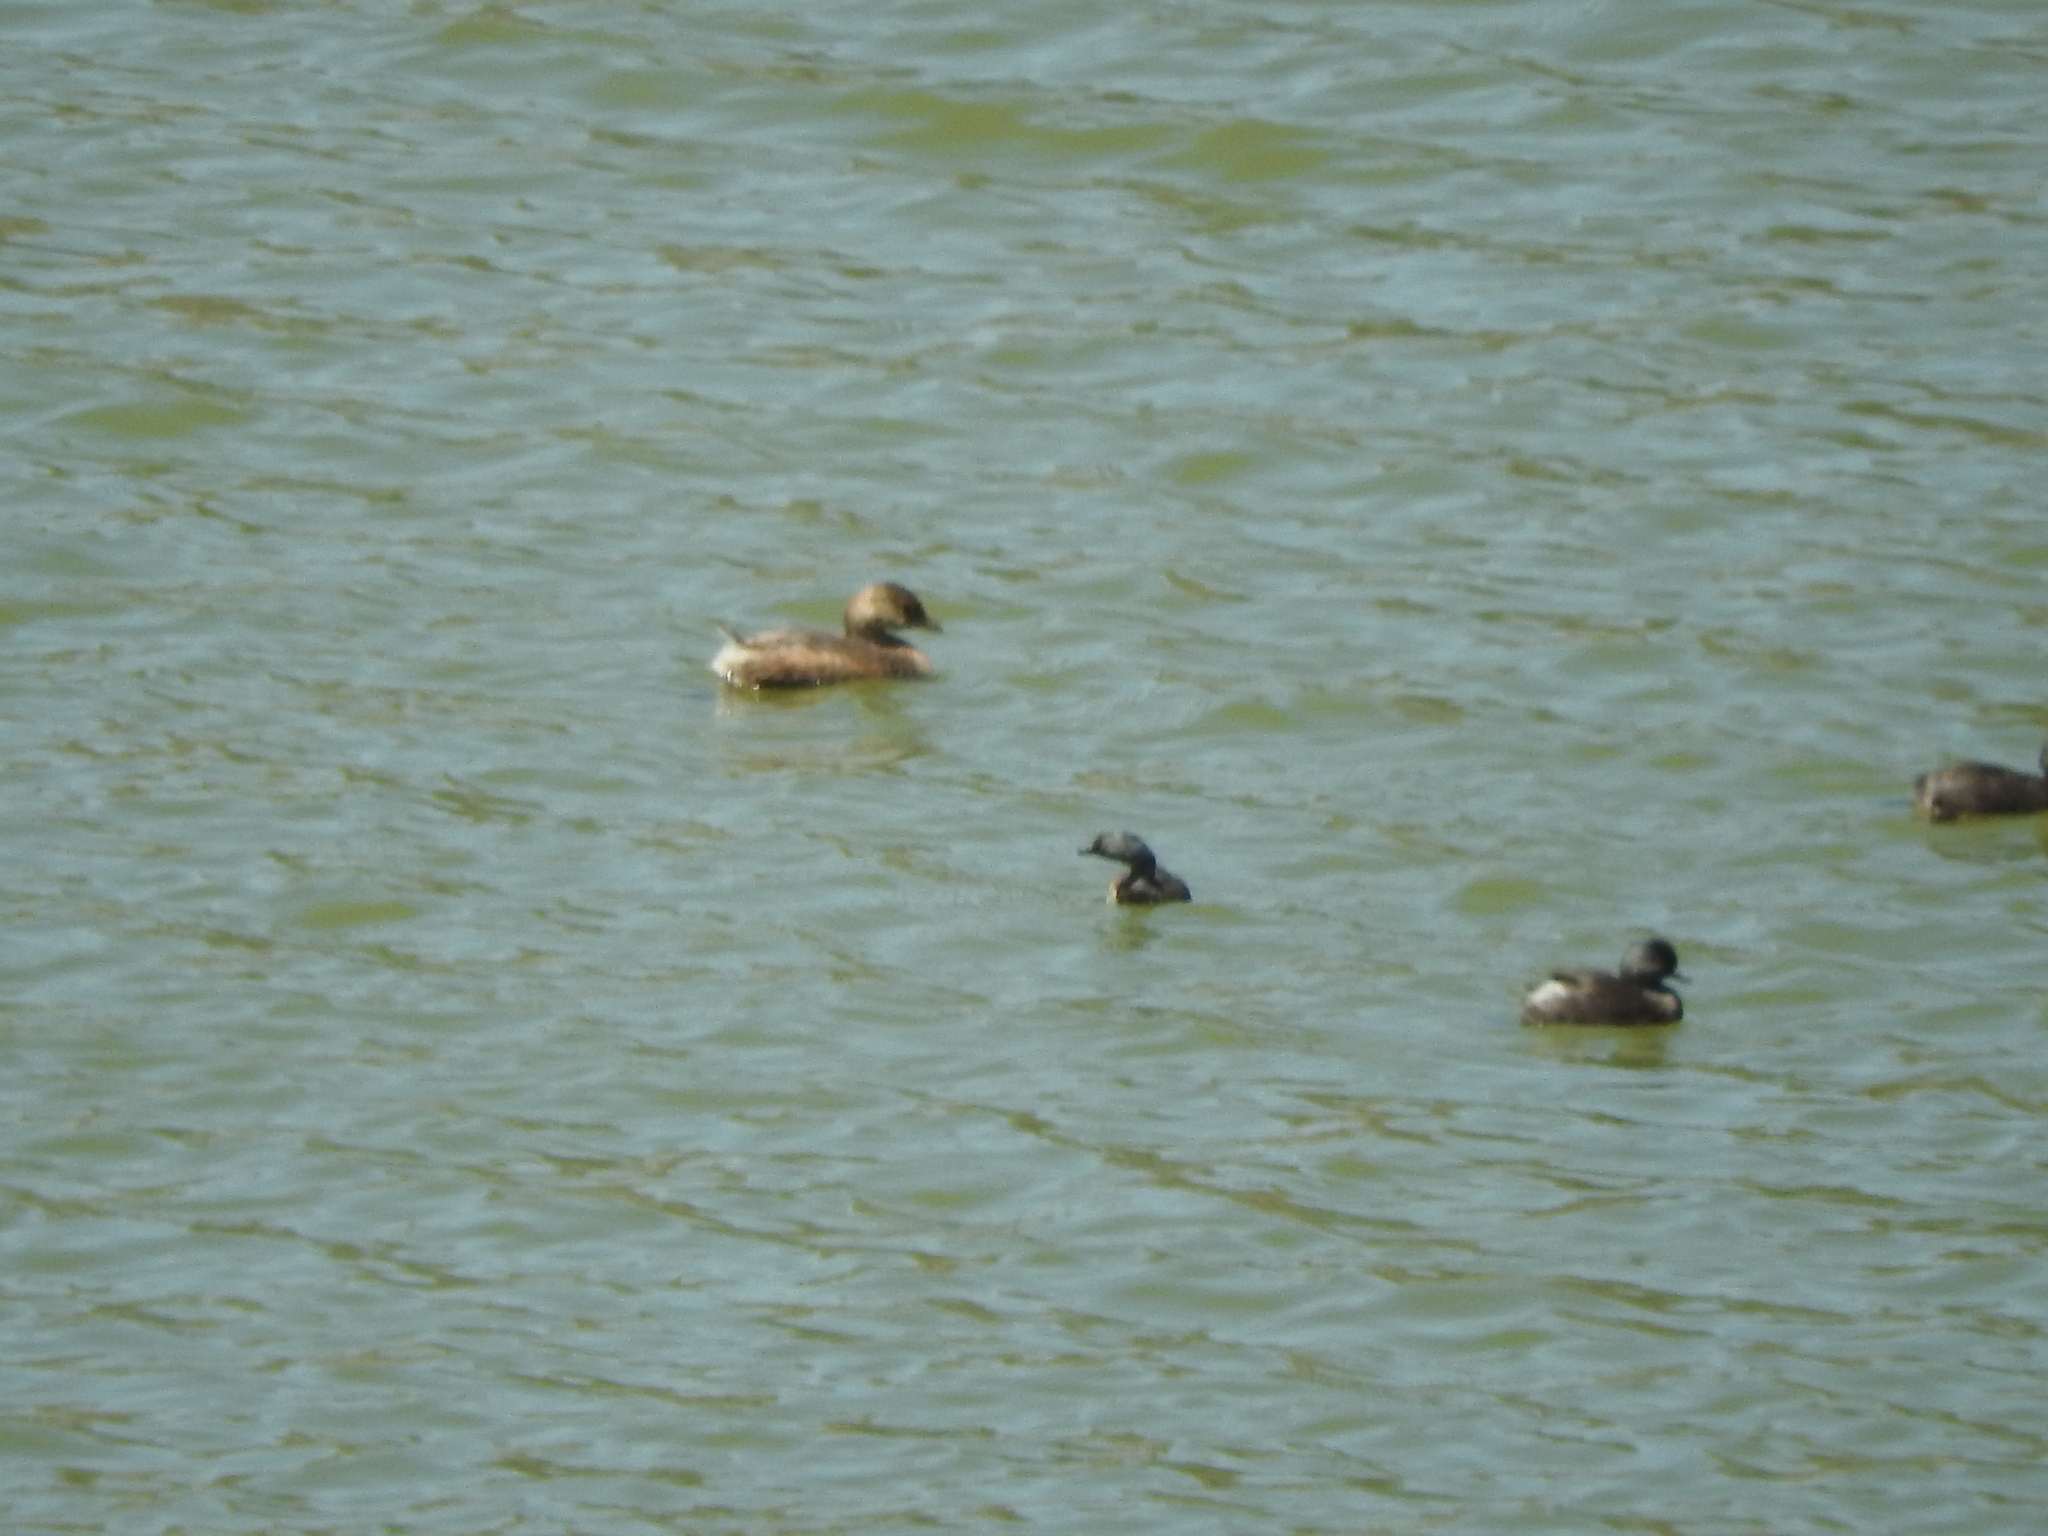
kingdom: Animalia
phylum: Chordata
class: Aves
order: Podicipediformes
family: Podicipedidae
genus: Podilymbus
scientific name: Podilymbus podiceps
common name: Pied-billed grebe
